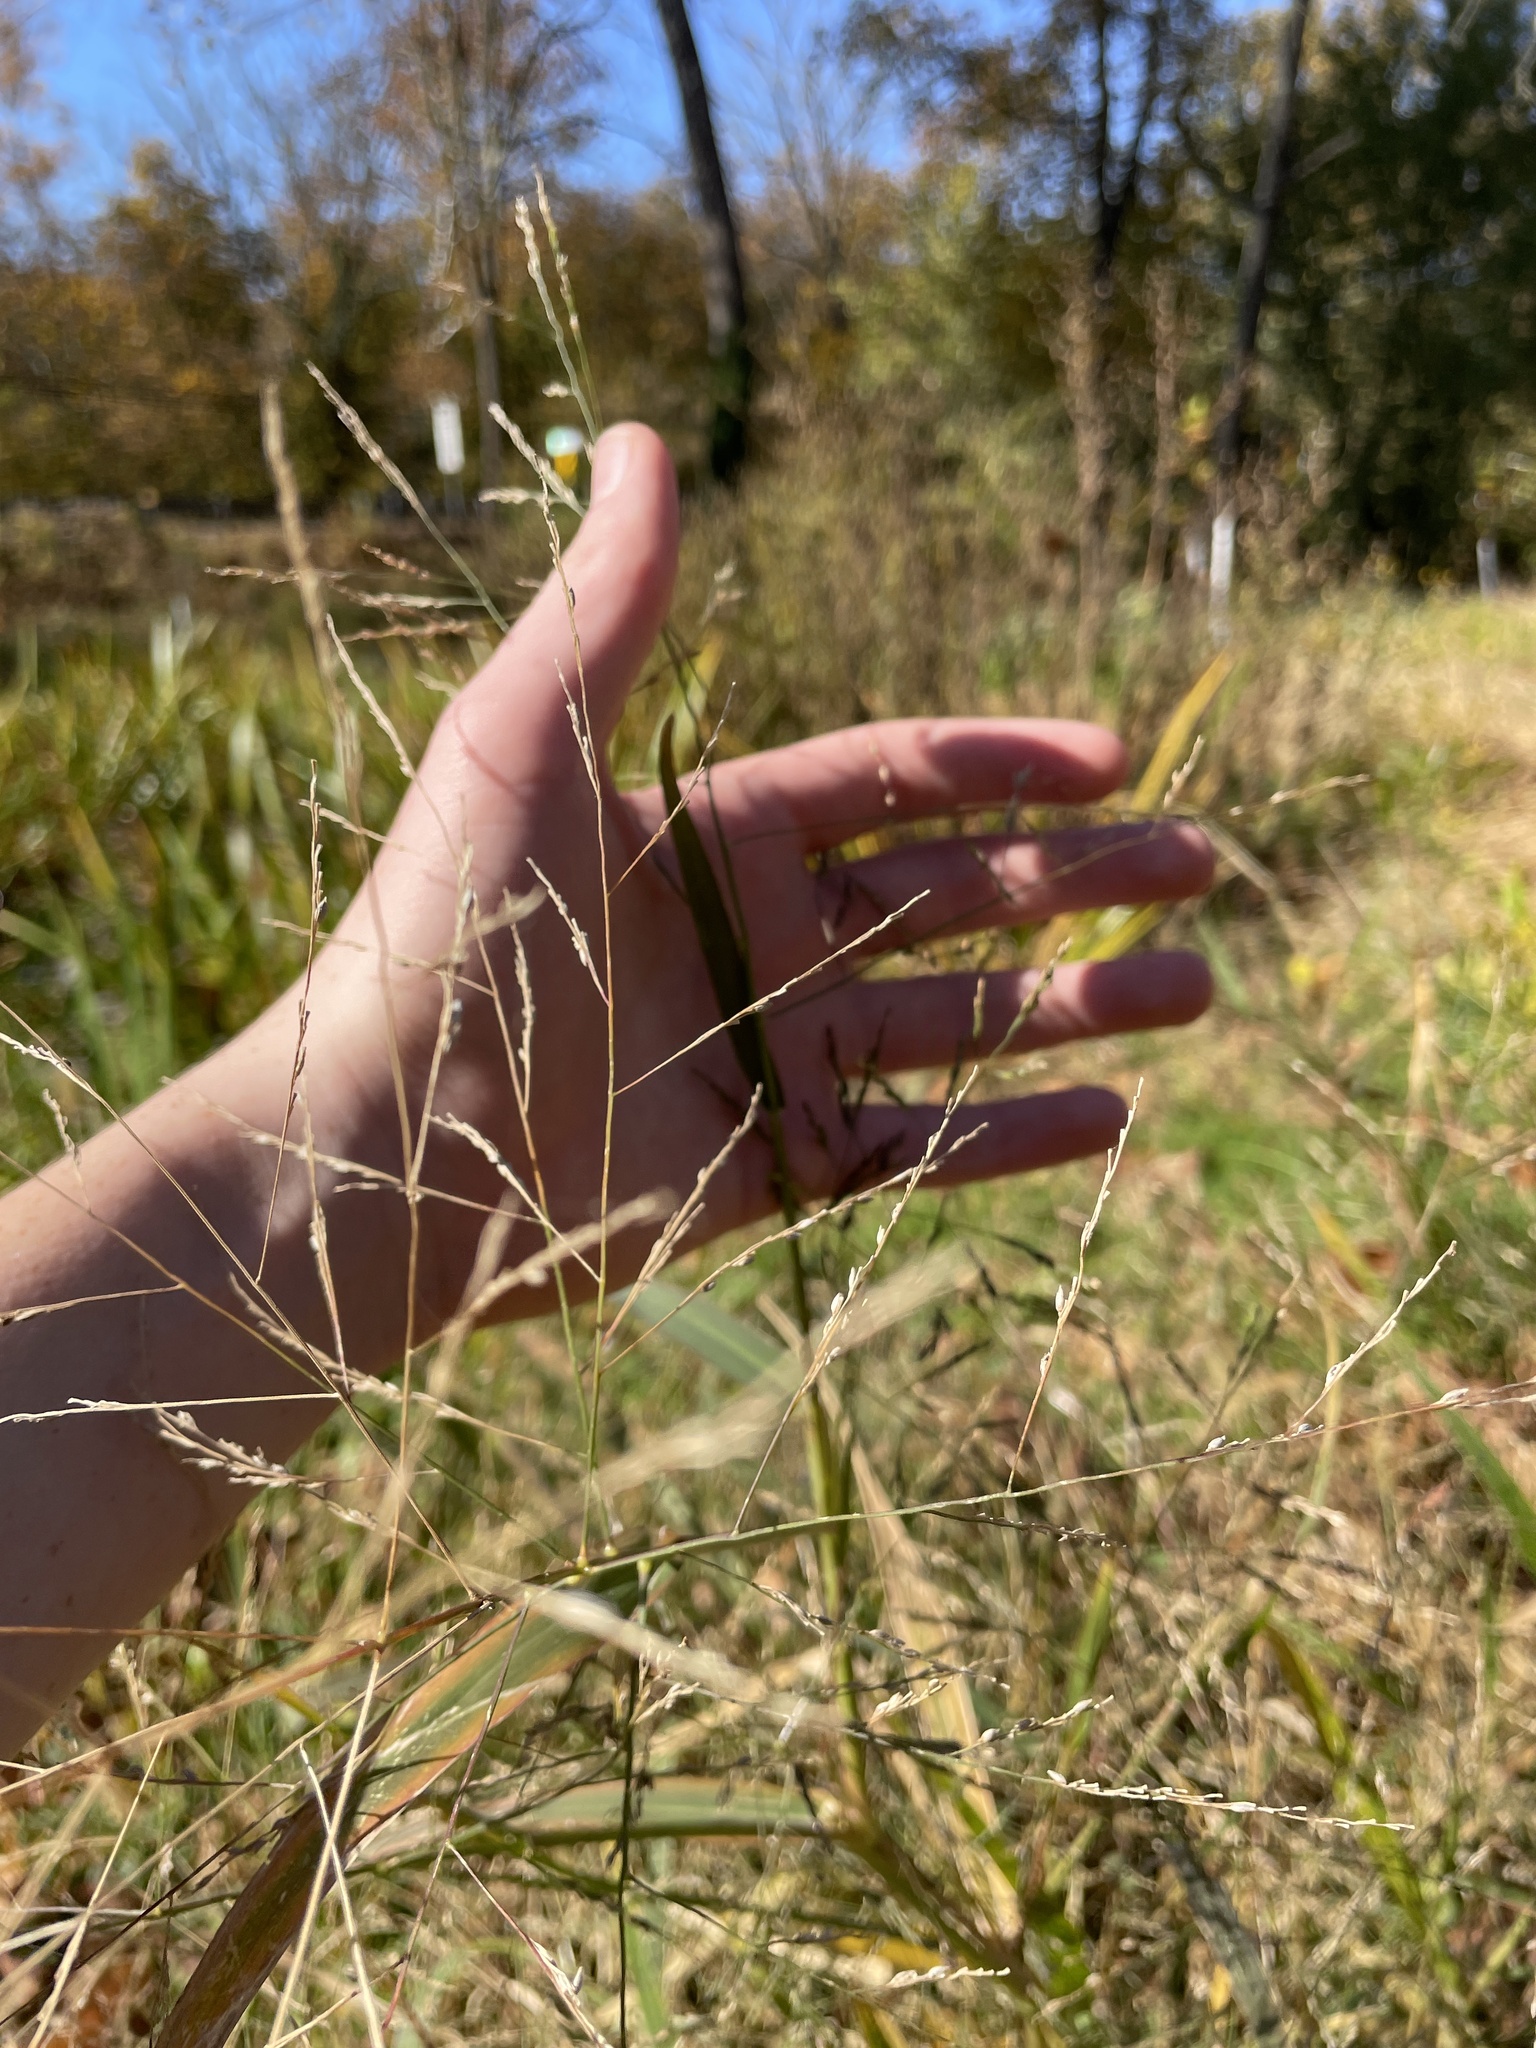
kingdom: Plantae
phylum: Tracheophyta
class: Liliopsida
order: Poales
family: Poaceae
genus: Panicum
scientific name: Panicum dichotomiflorum
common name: Autumn millet
